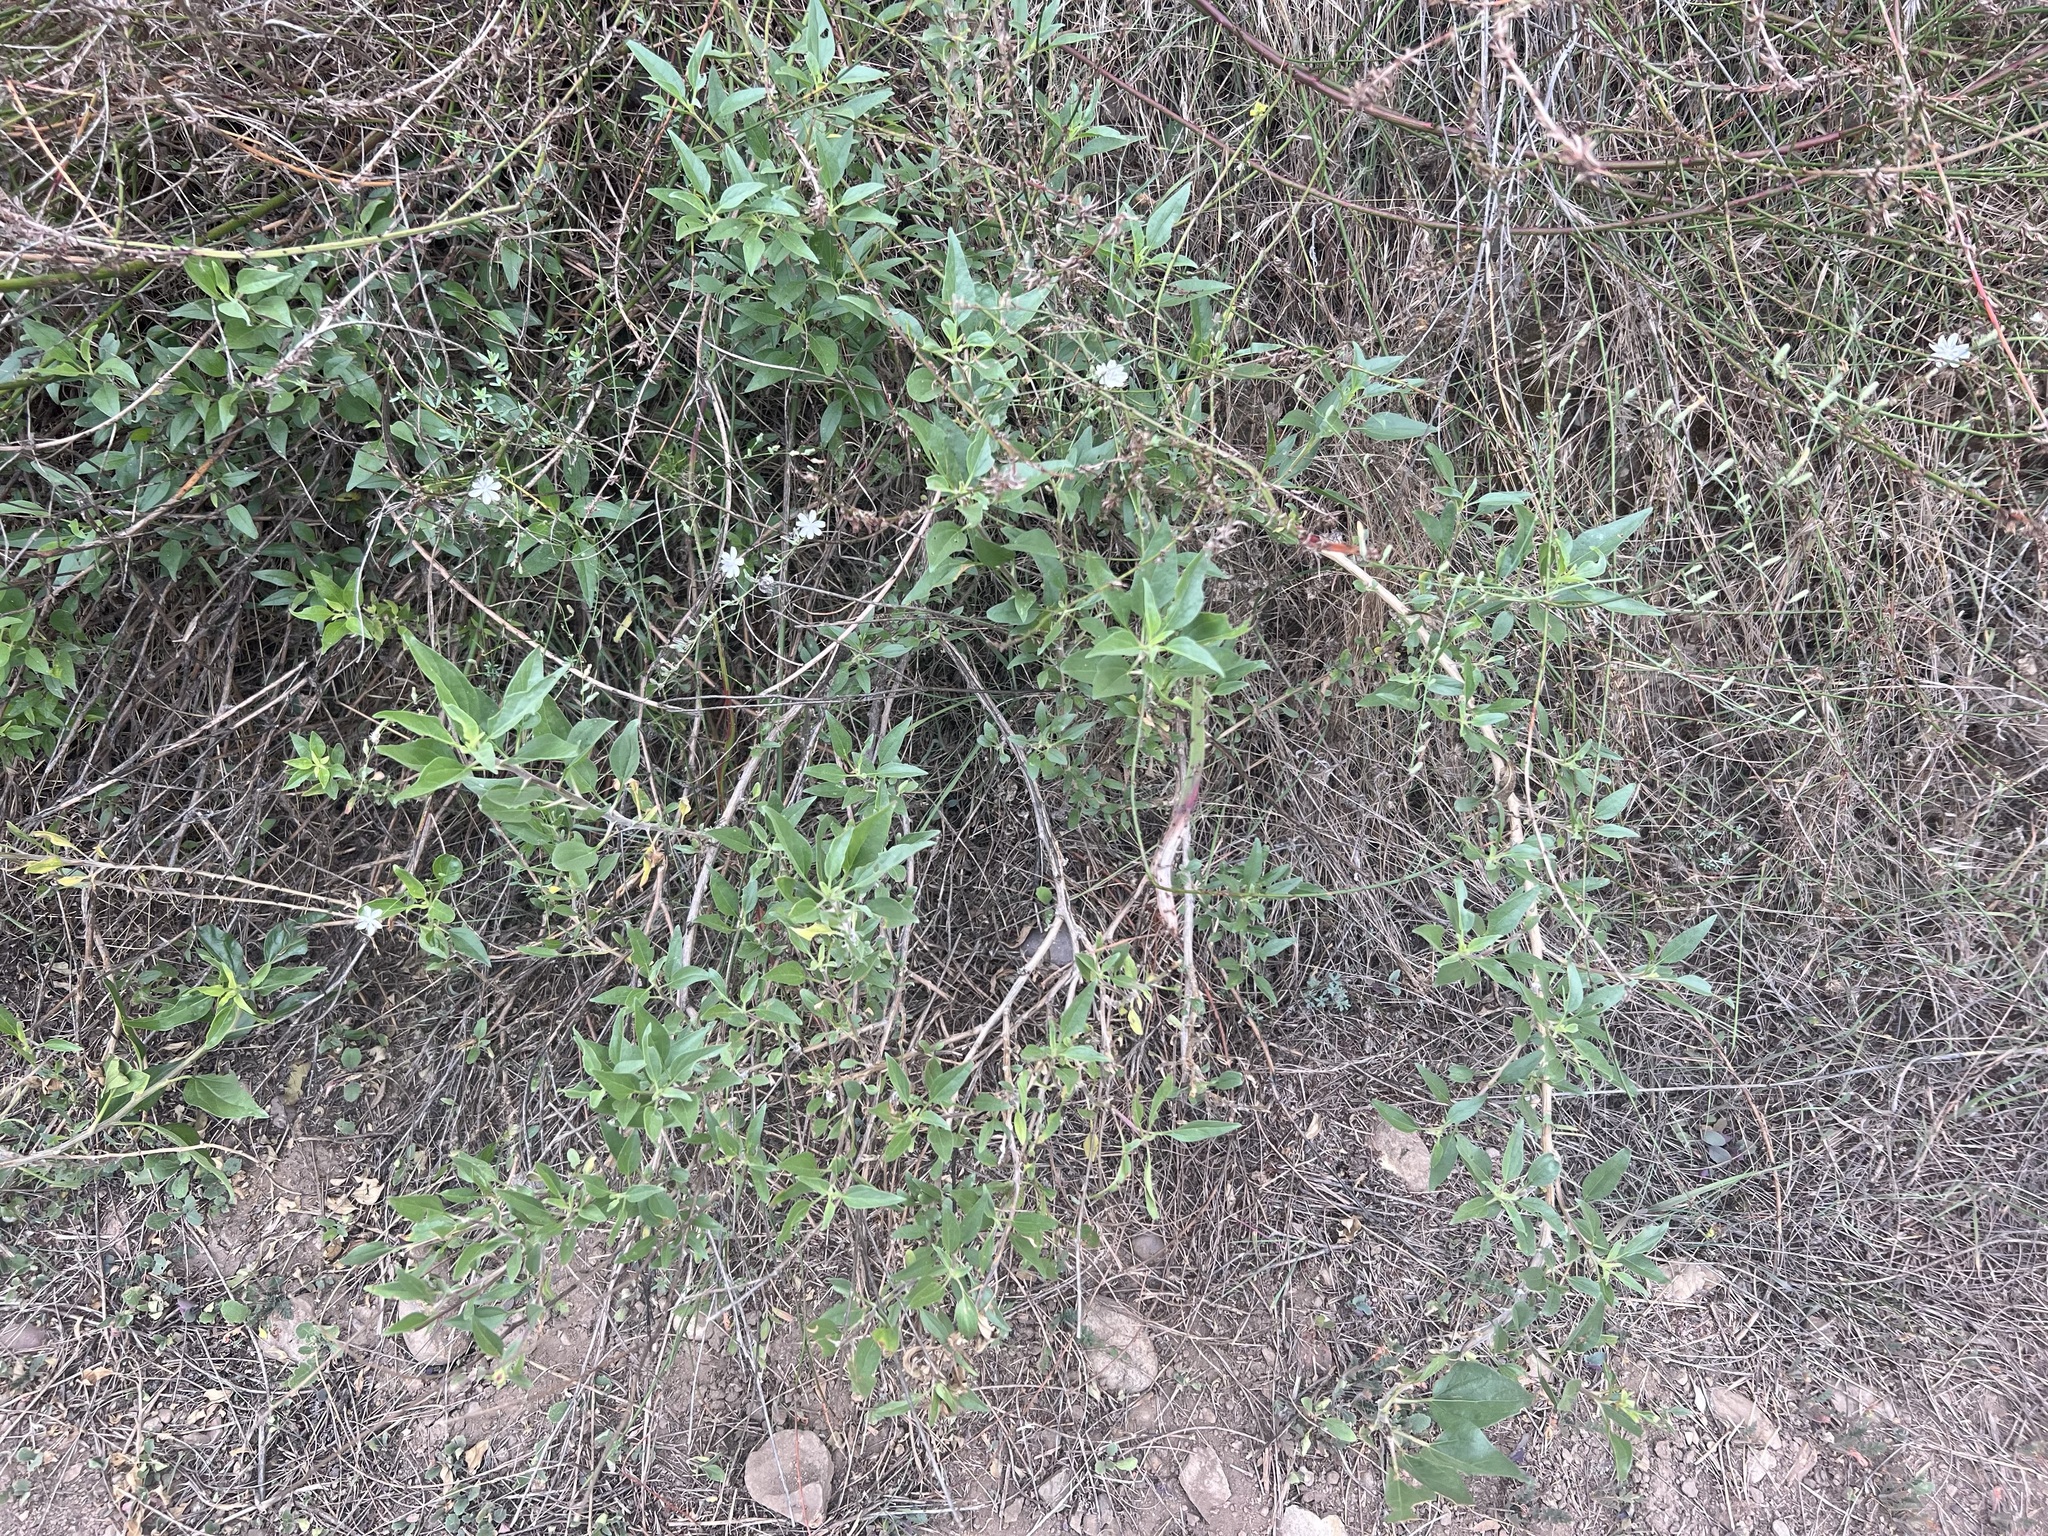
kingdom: Plantae
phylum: Tracheophyta
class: Magnoliopsida
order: Asterales
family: Asteraceae
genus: Encelia
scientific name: Encelia californica
